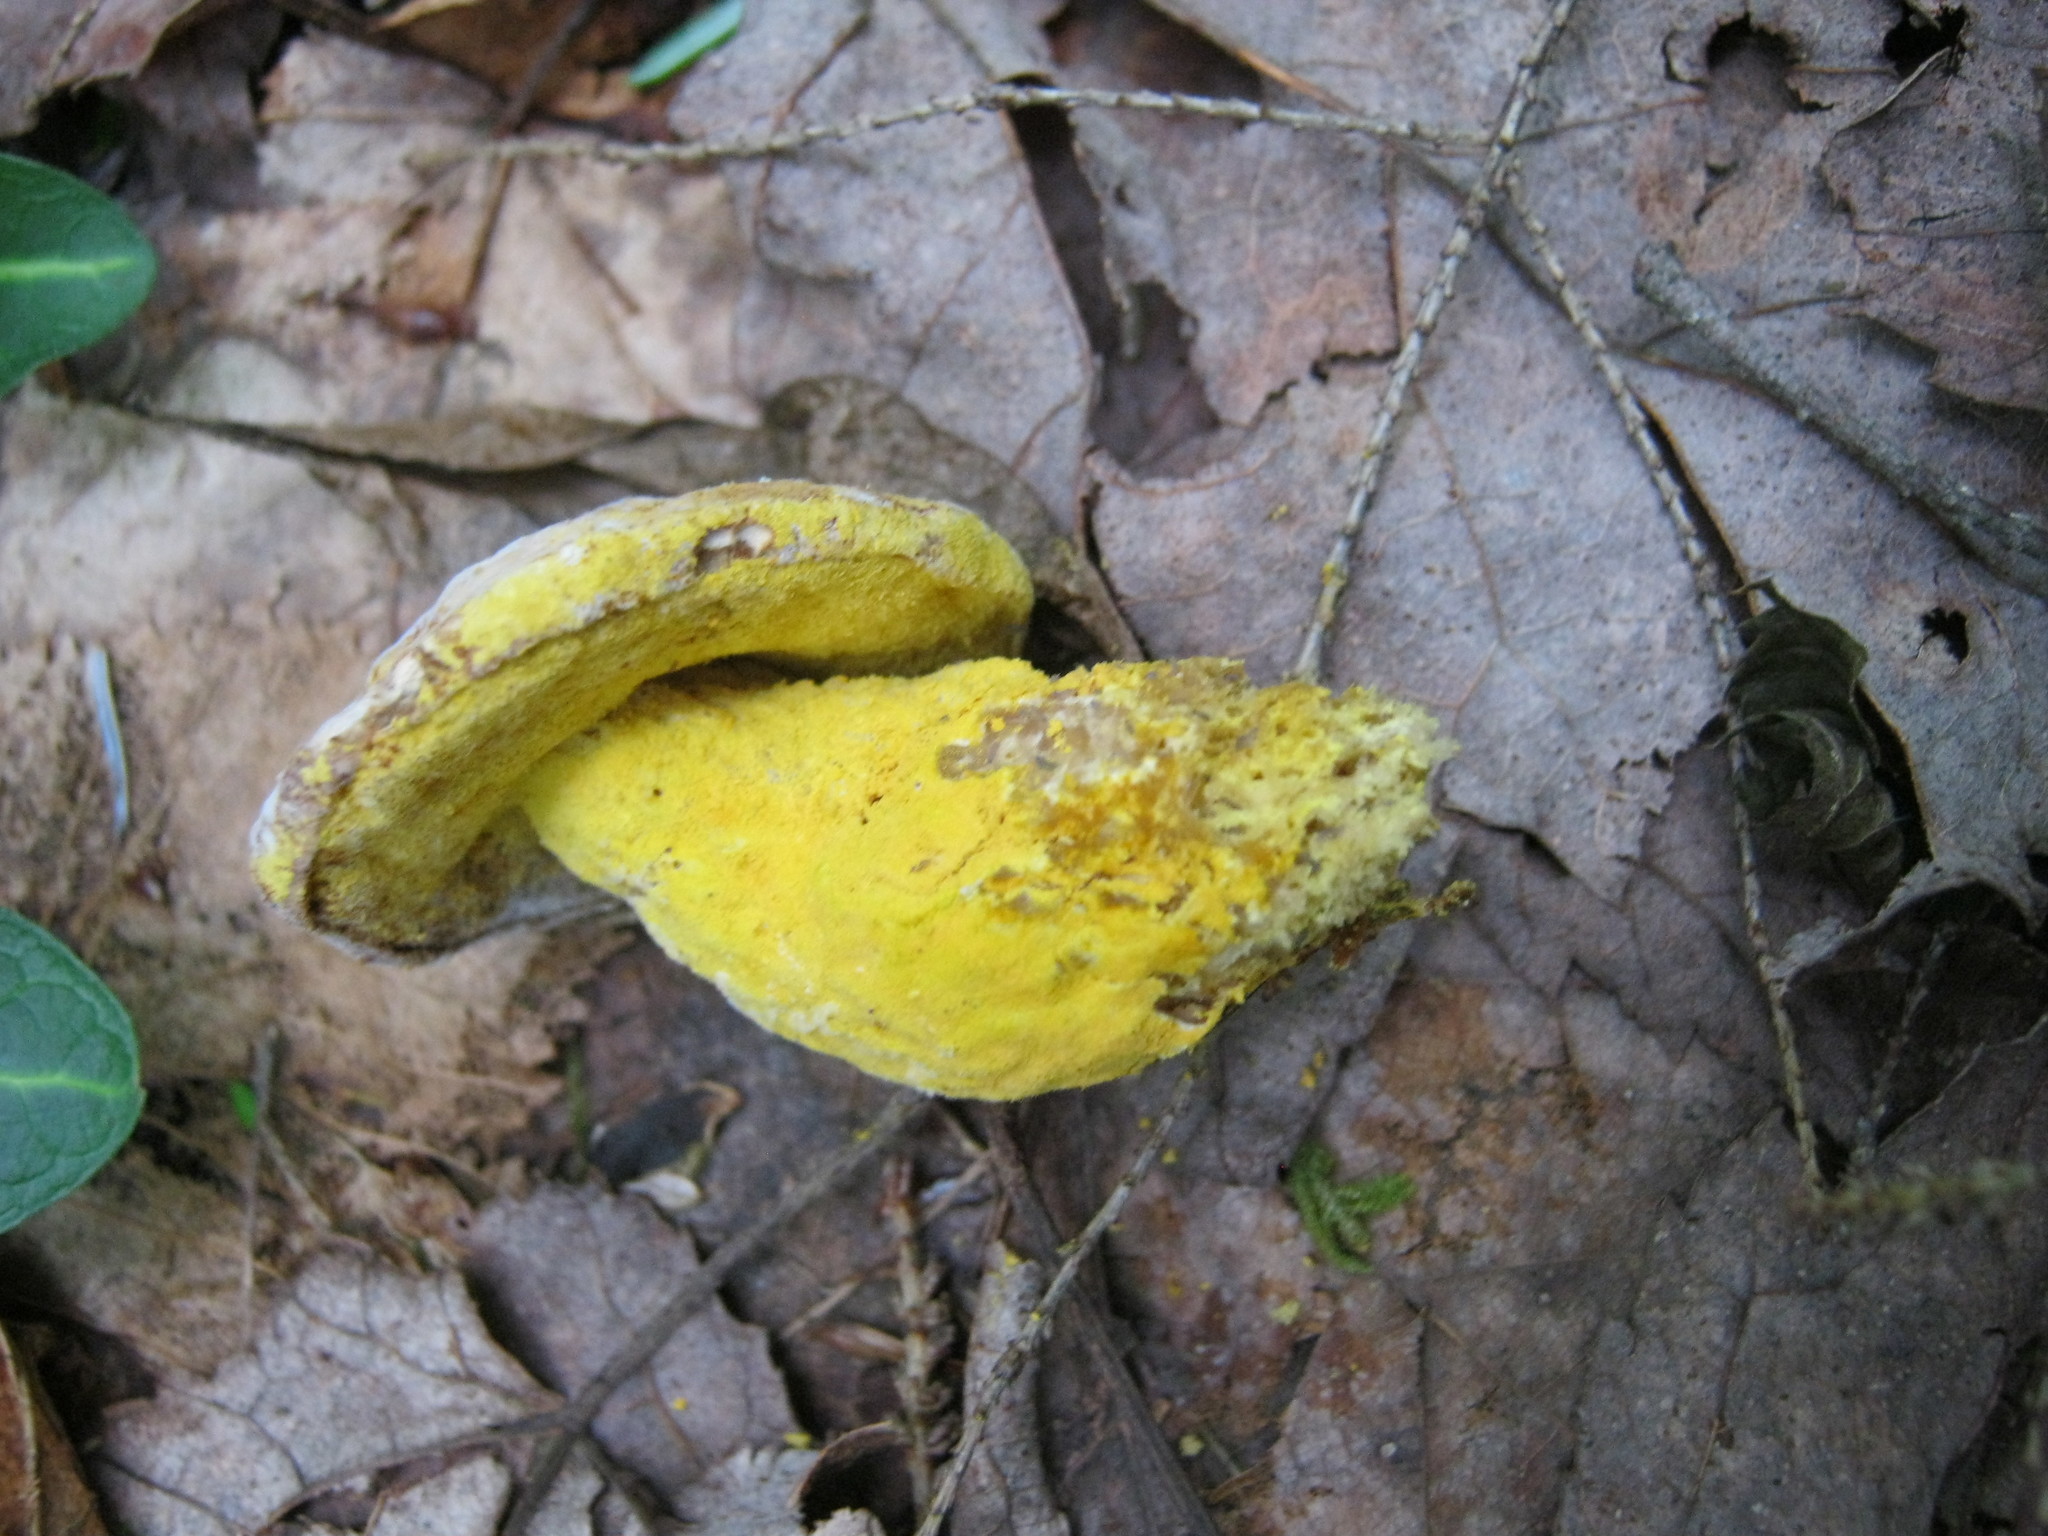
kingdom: Fungi
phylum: Ascomycota
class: Sordariomycetes
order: Hypocreales
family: Hypocreaceae
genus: Hypomyces
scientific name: Hypomyces chrysospermus
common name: Bolete mould
